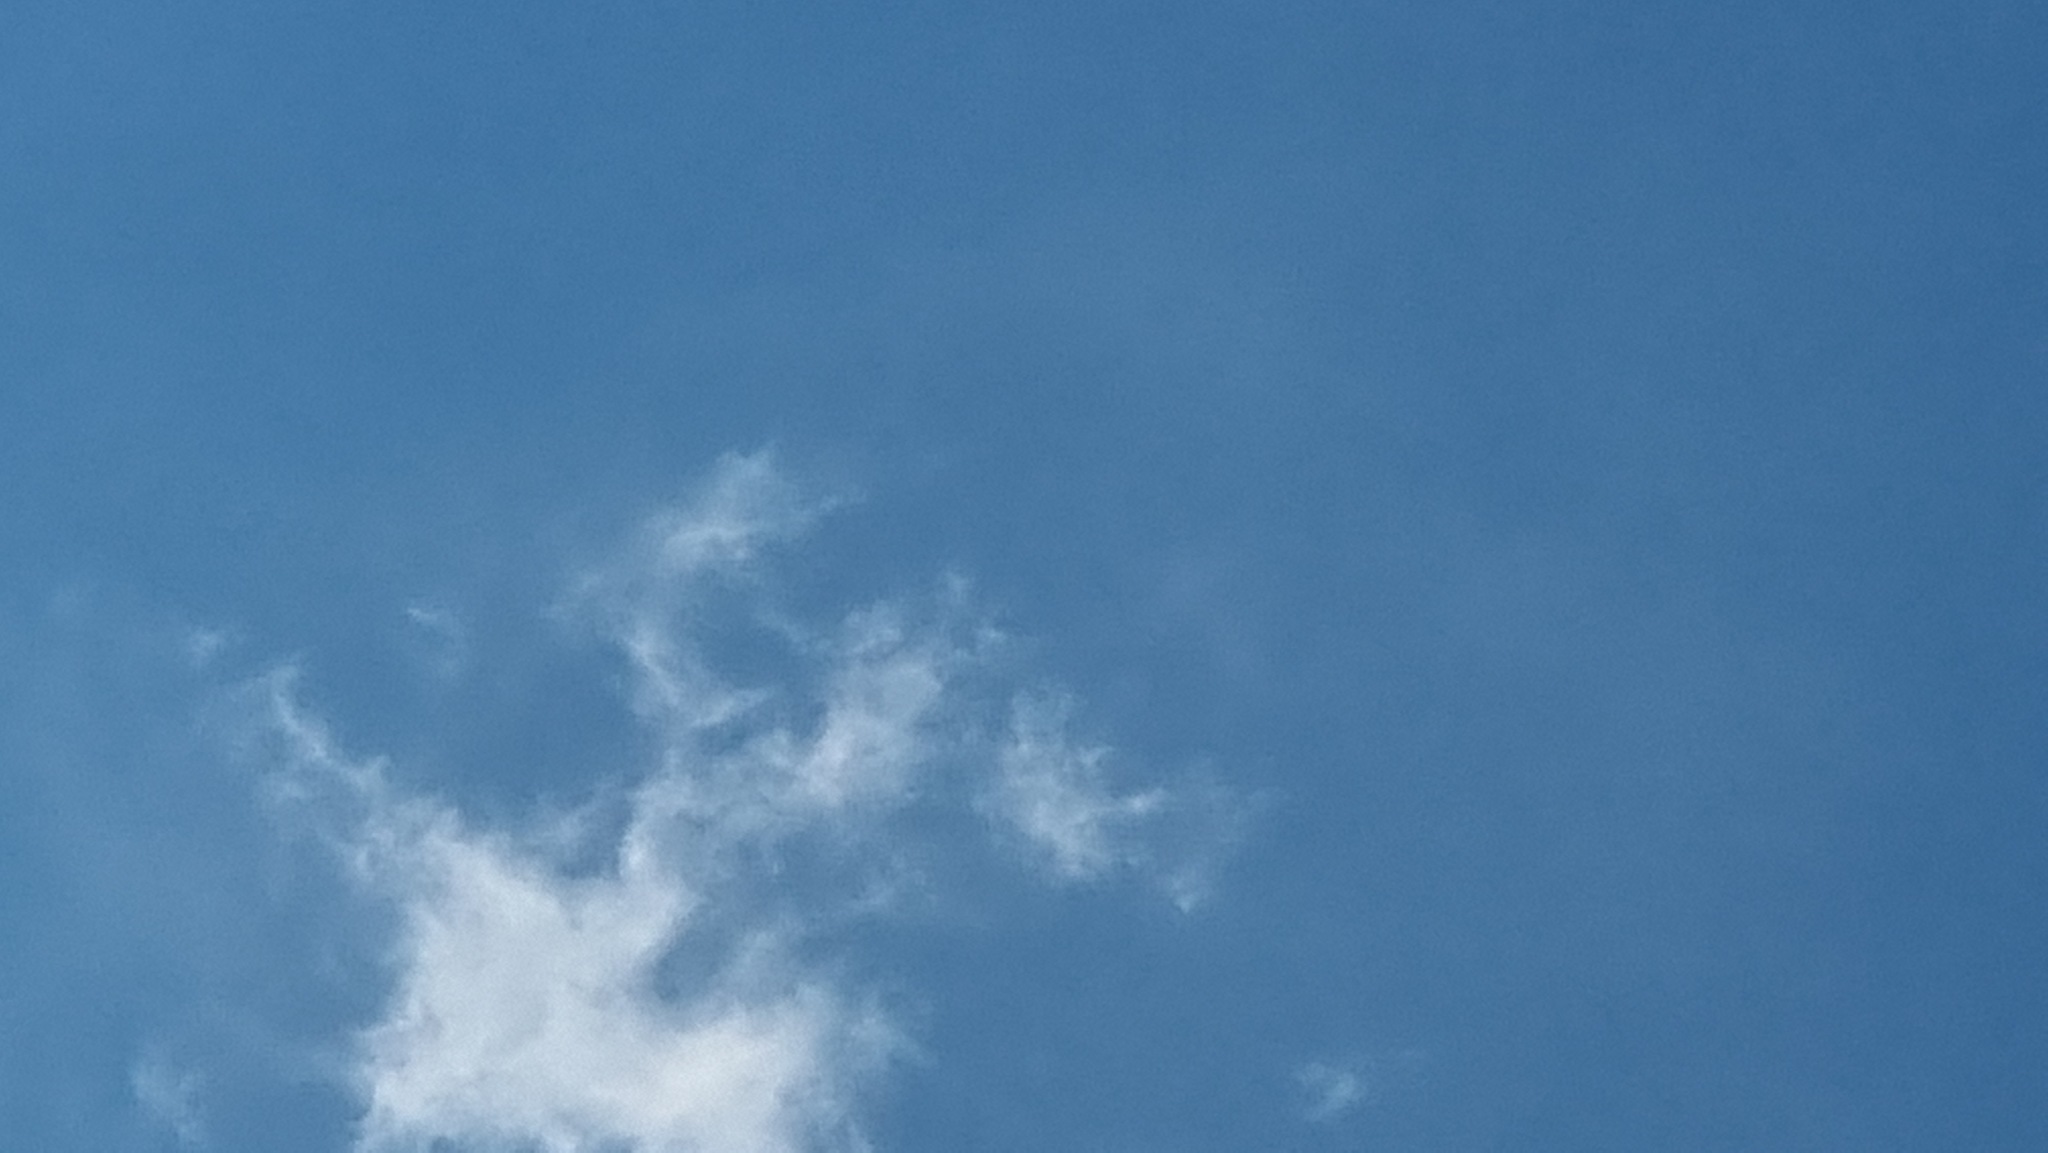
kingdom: Animalia
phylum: Chordata
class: Aves
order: Accipitriformes
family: Accipitridae
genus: Buteo
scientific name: Buteo buteo
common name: Common buzzard
